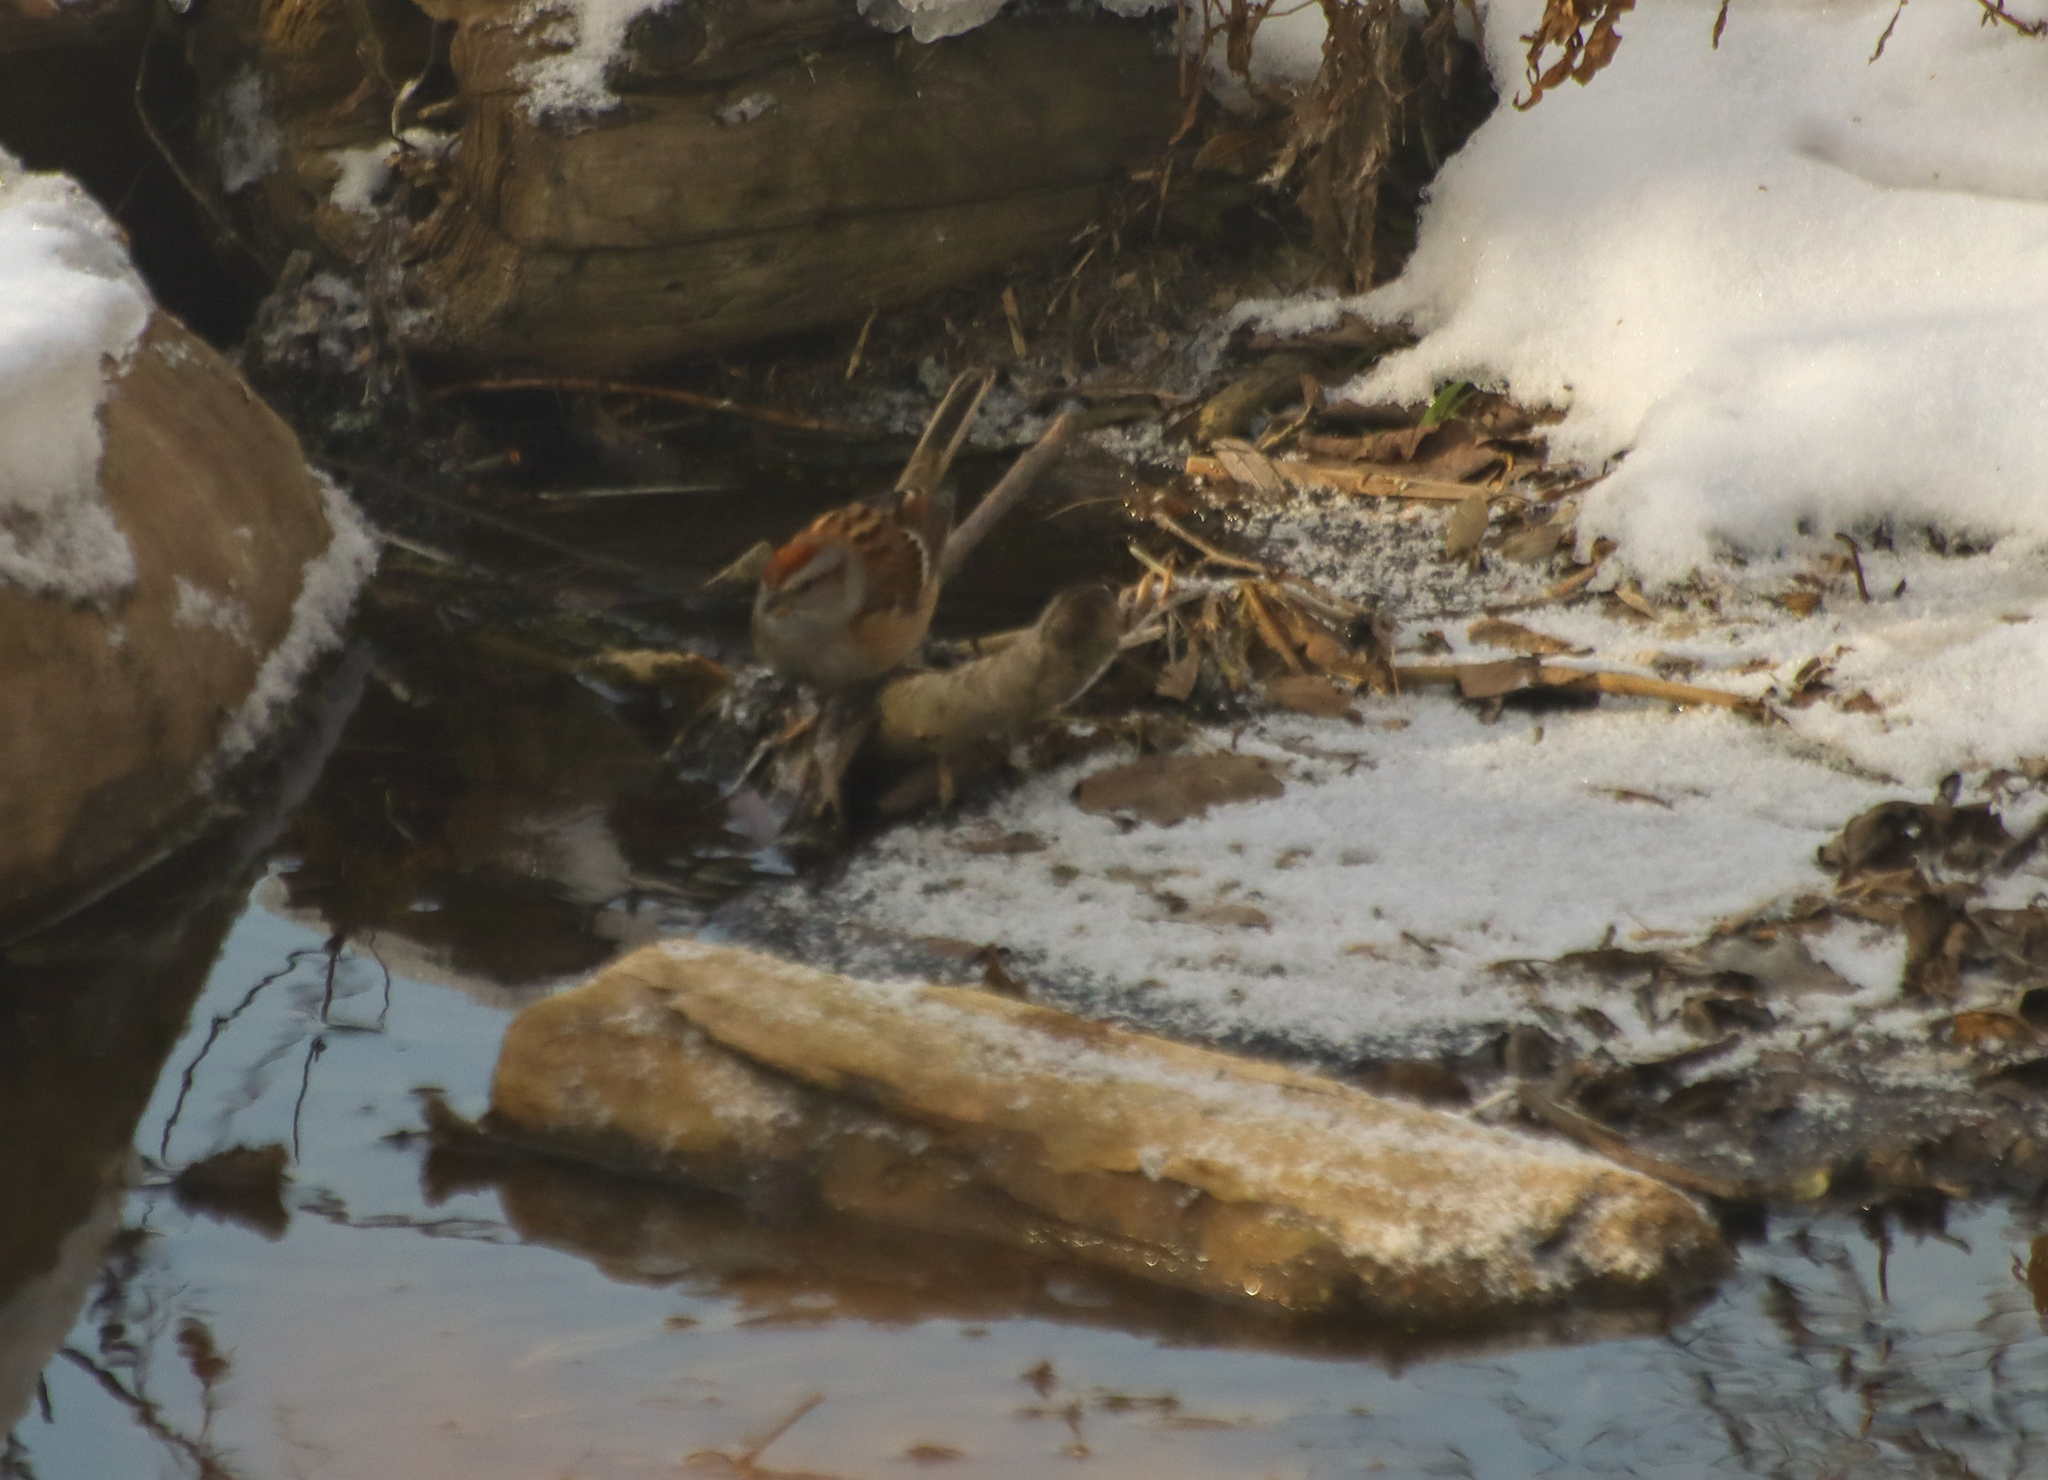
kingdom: Animalia
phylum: Chordata
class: Aves
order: Passeriformes
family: Passerellidae
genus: Spizelloides
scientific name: Spizelloides arborea
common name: American tree sparrow
